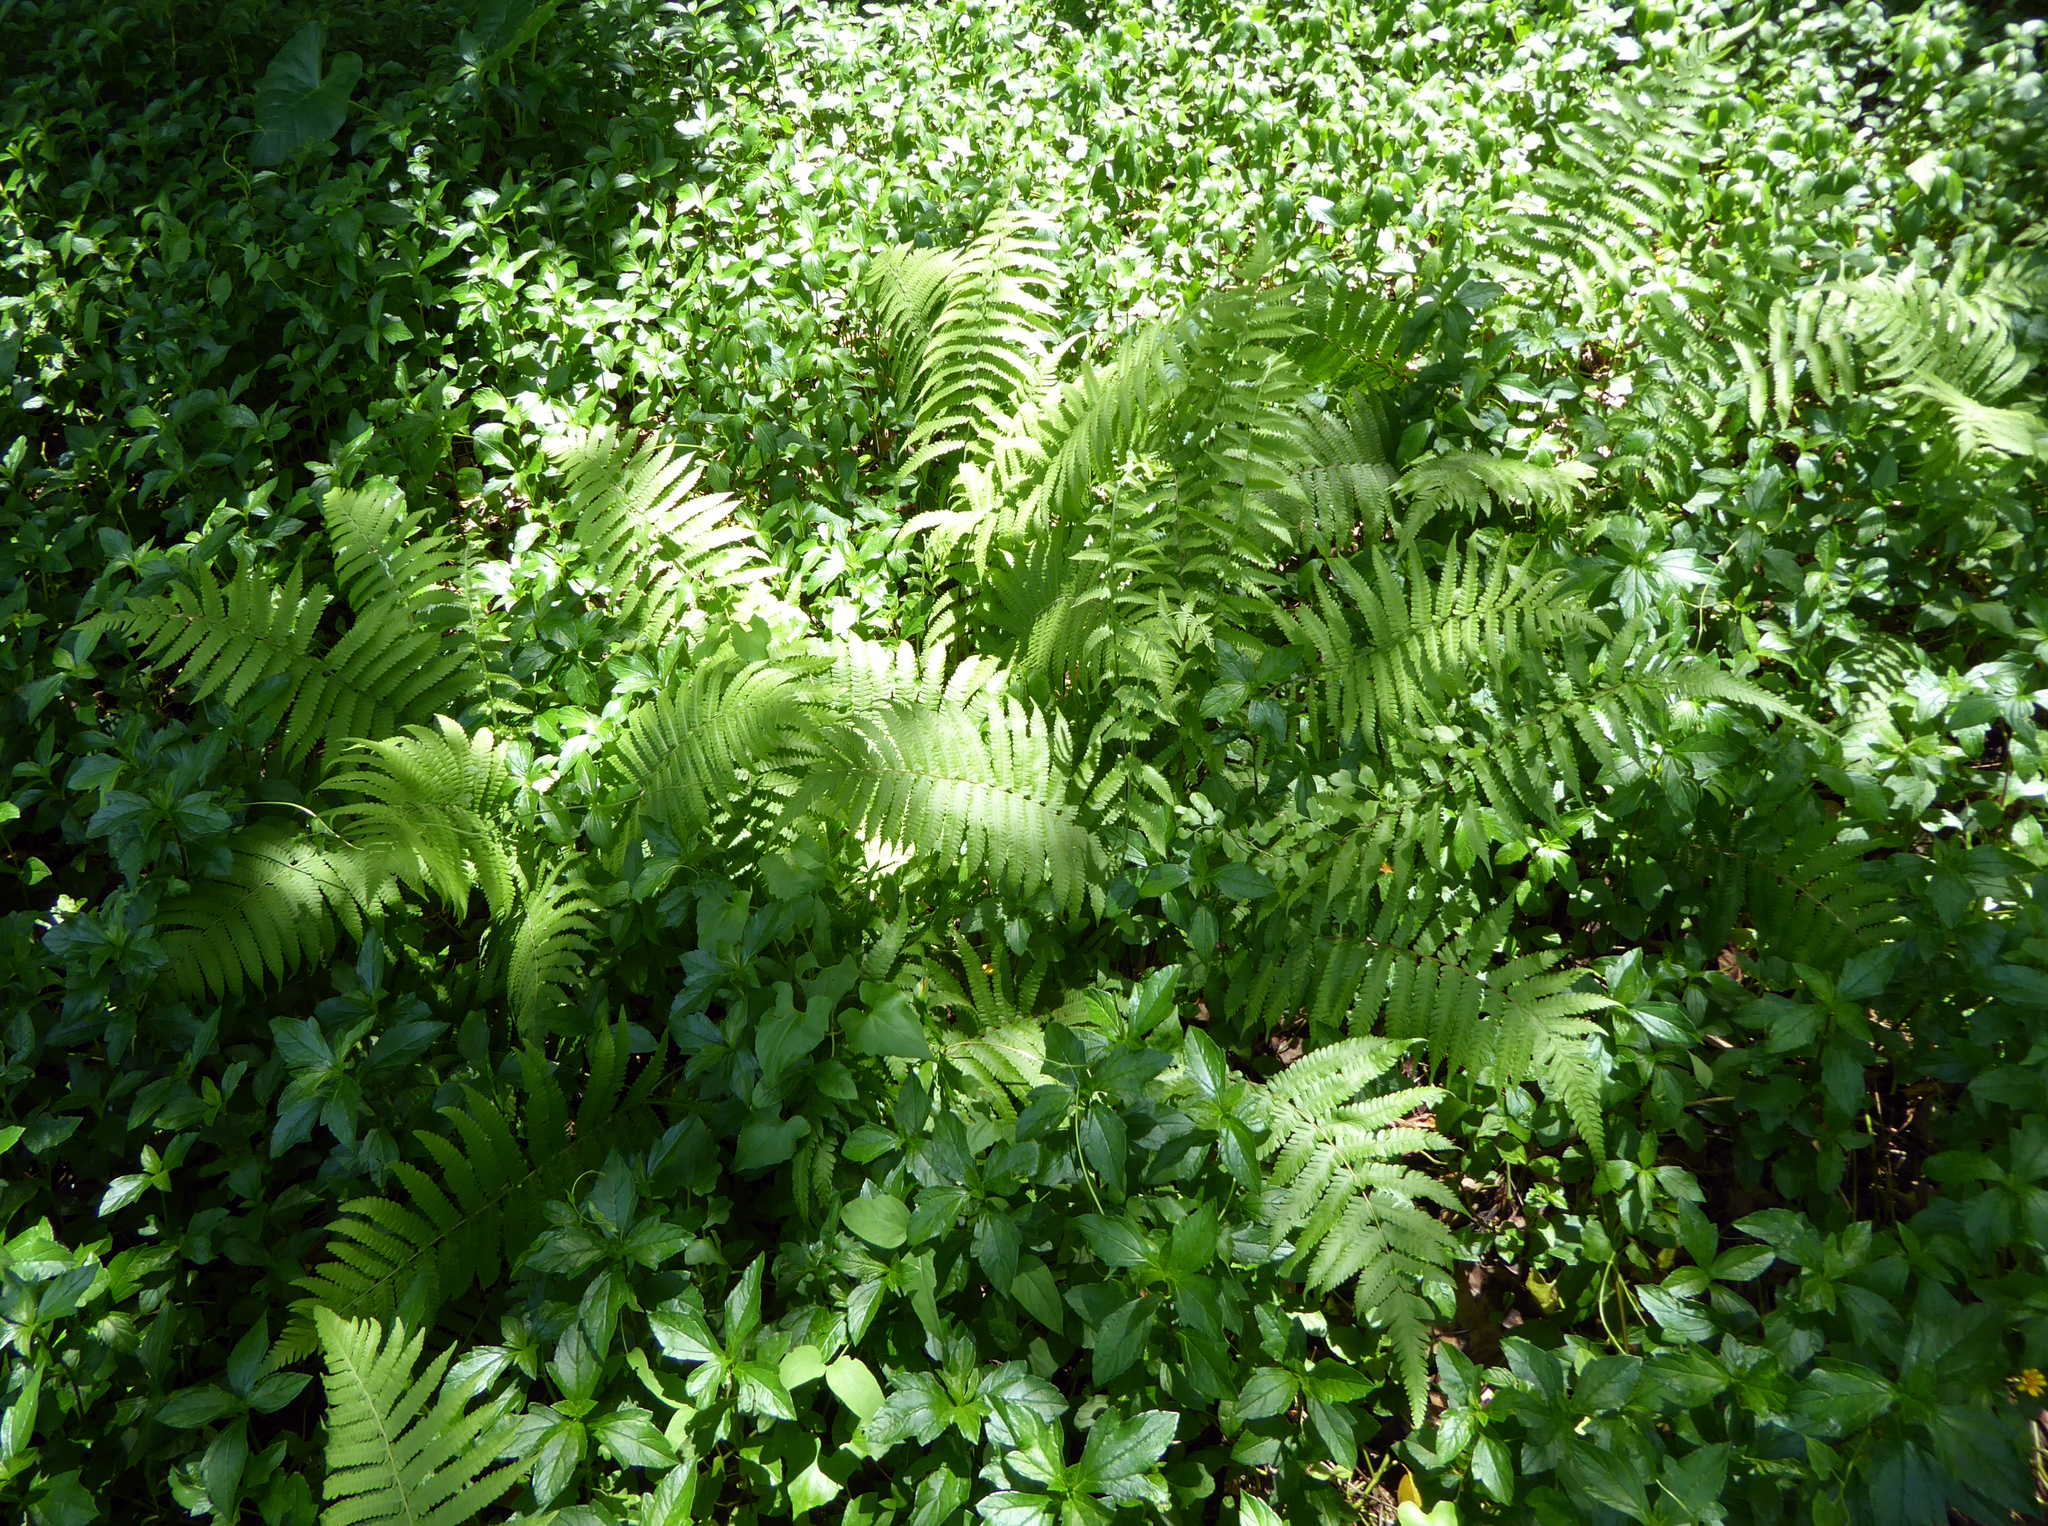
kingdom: Plantae
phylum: Tracheophyta
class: Polypodiopsida
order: Polypodiales
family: Thelypteridaceae
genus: Christella
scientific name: Christella parasitica
